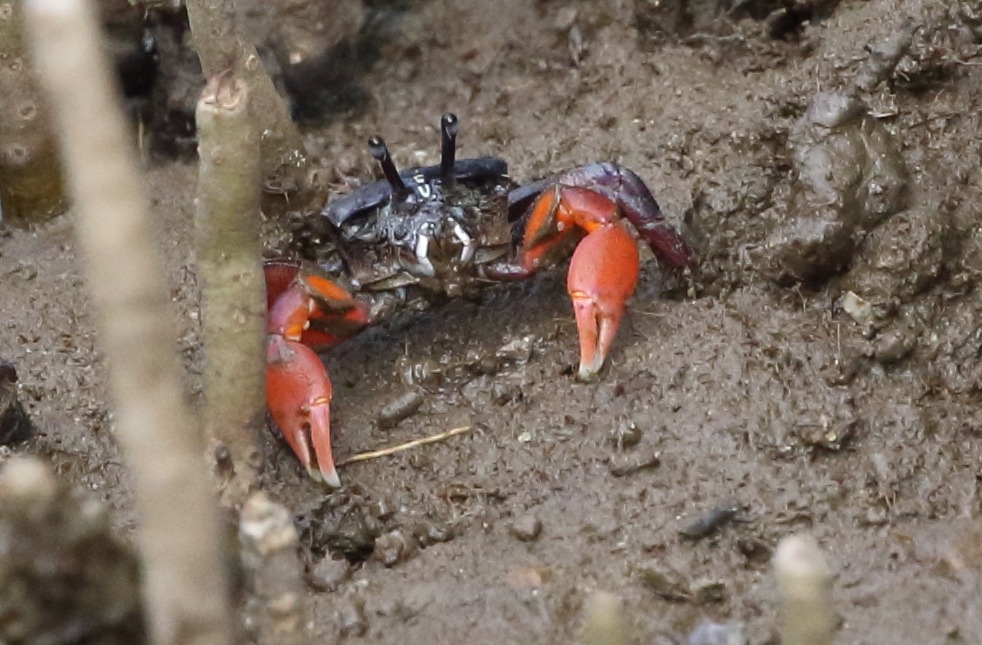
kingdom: Animalia
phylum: Arthropoda
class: Malacostraca
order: Decapoda
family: Heloeciidae
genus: Heloecius
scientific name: Heloecius cordiformis
